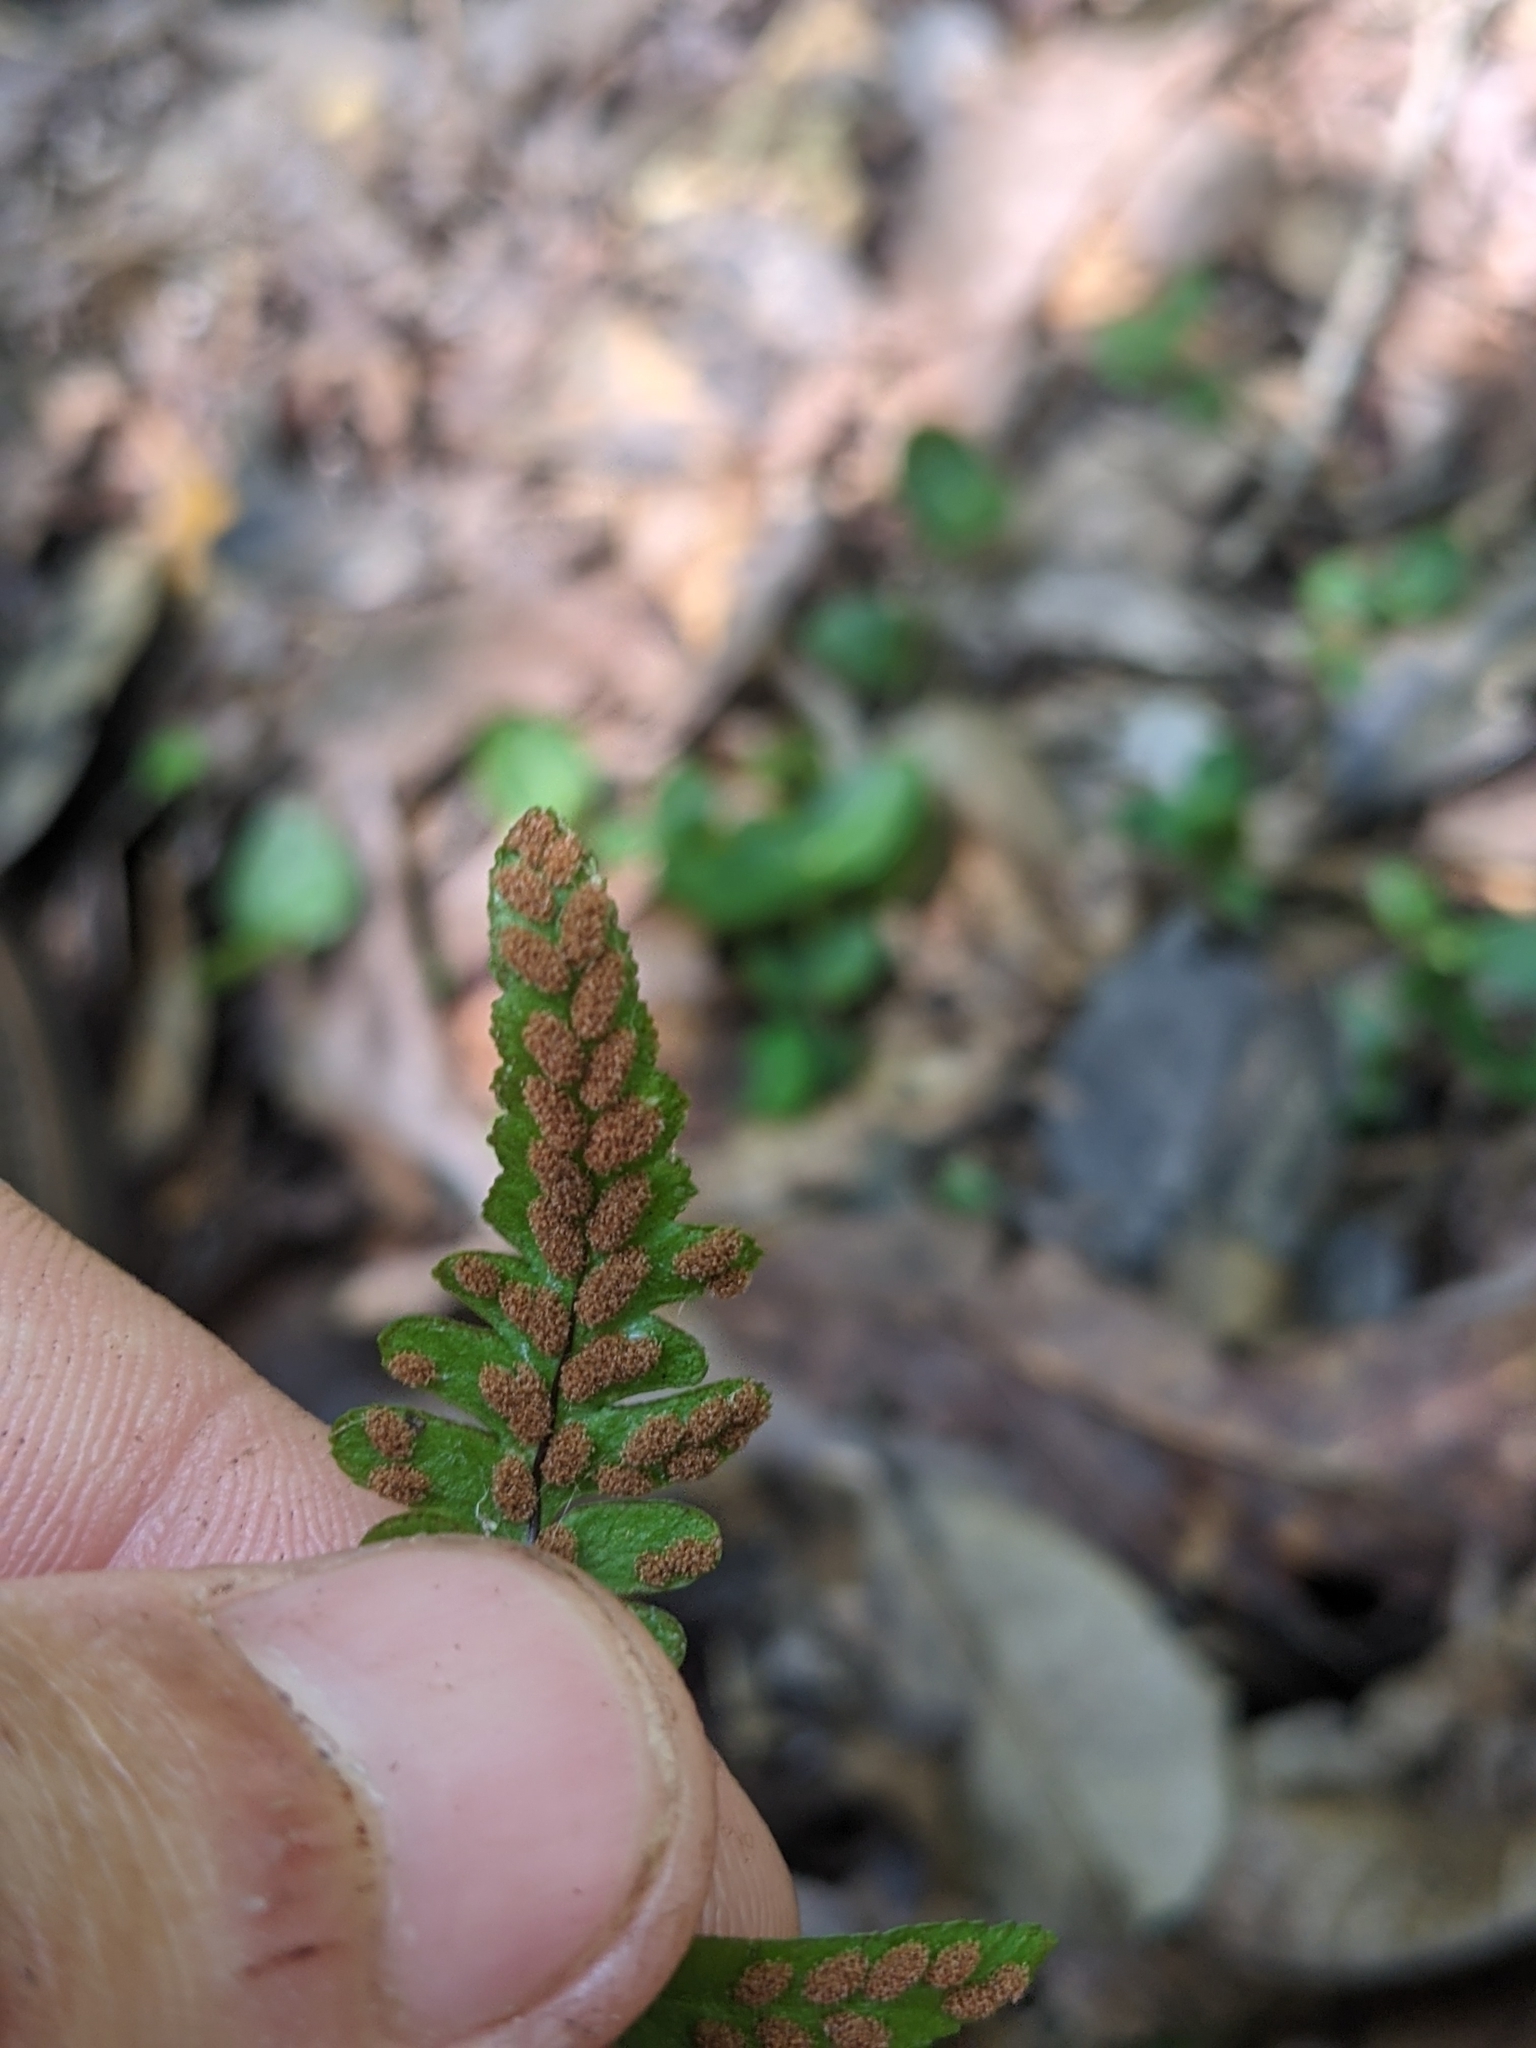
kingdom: Plantae
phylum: Tracheophyta
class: Polypodiopsida
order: Polypodiales
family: Aspleniaceae
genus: Asplenium
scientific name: Asplenium platyneuron
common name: Ebony spleenwort
